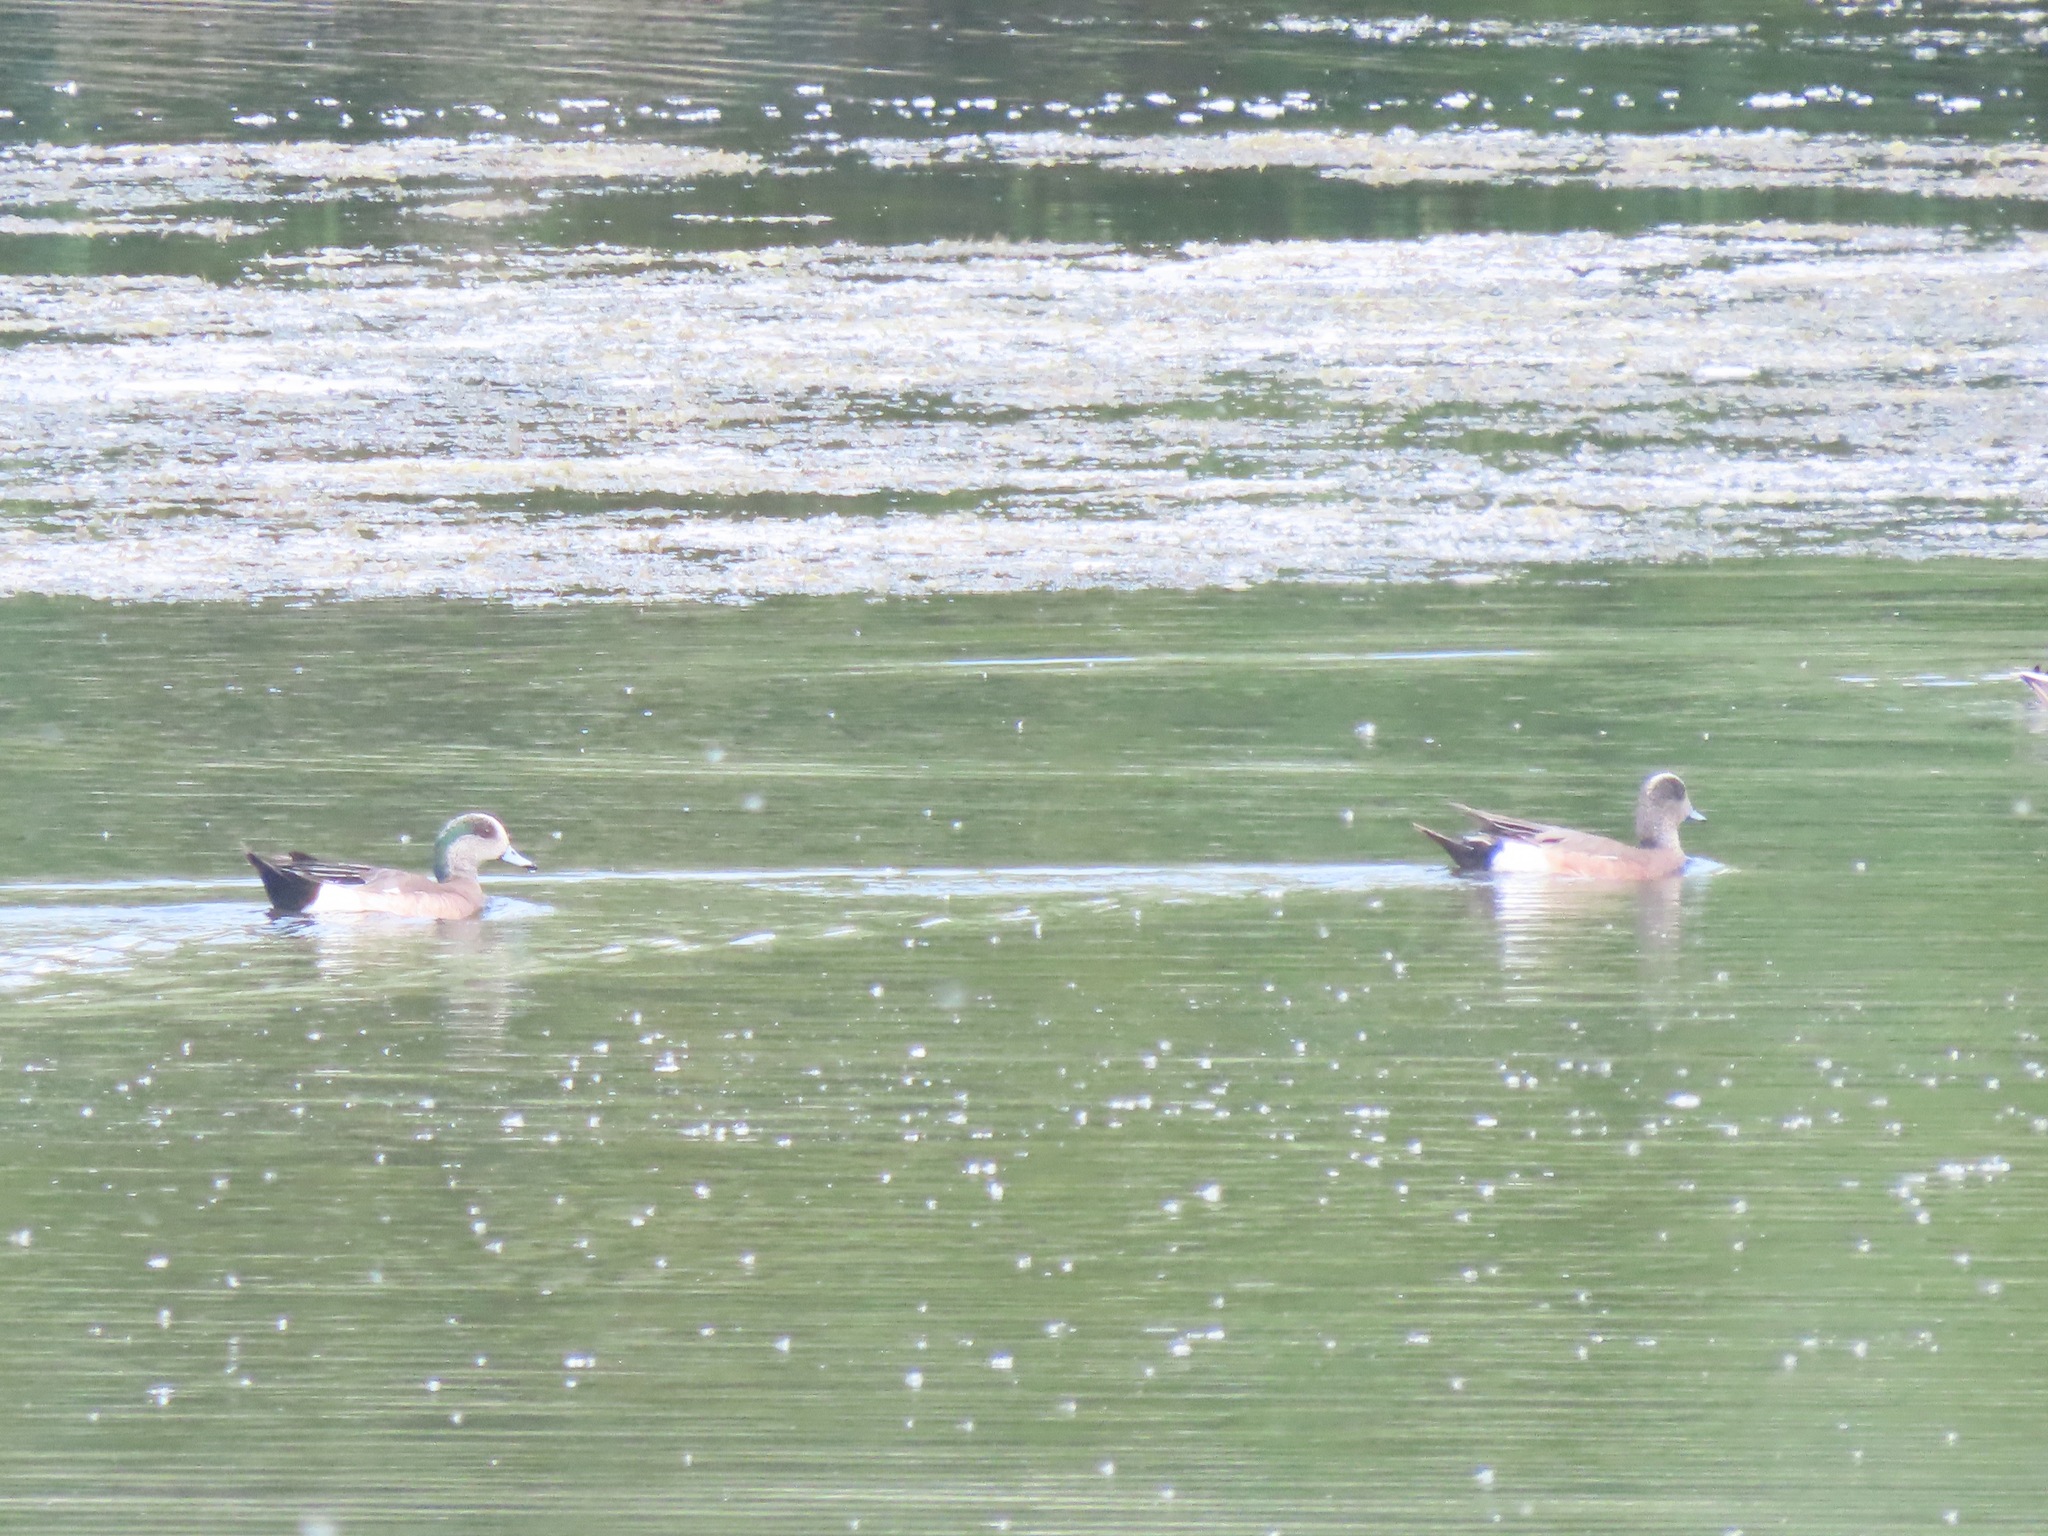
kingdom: Animalia
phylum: Chordata
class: Aves
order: Anseriformes
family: Anatidae
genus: Mareca
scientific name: Mareca americana
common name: American wigeon
